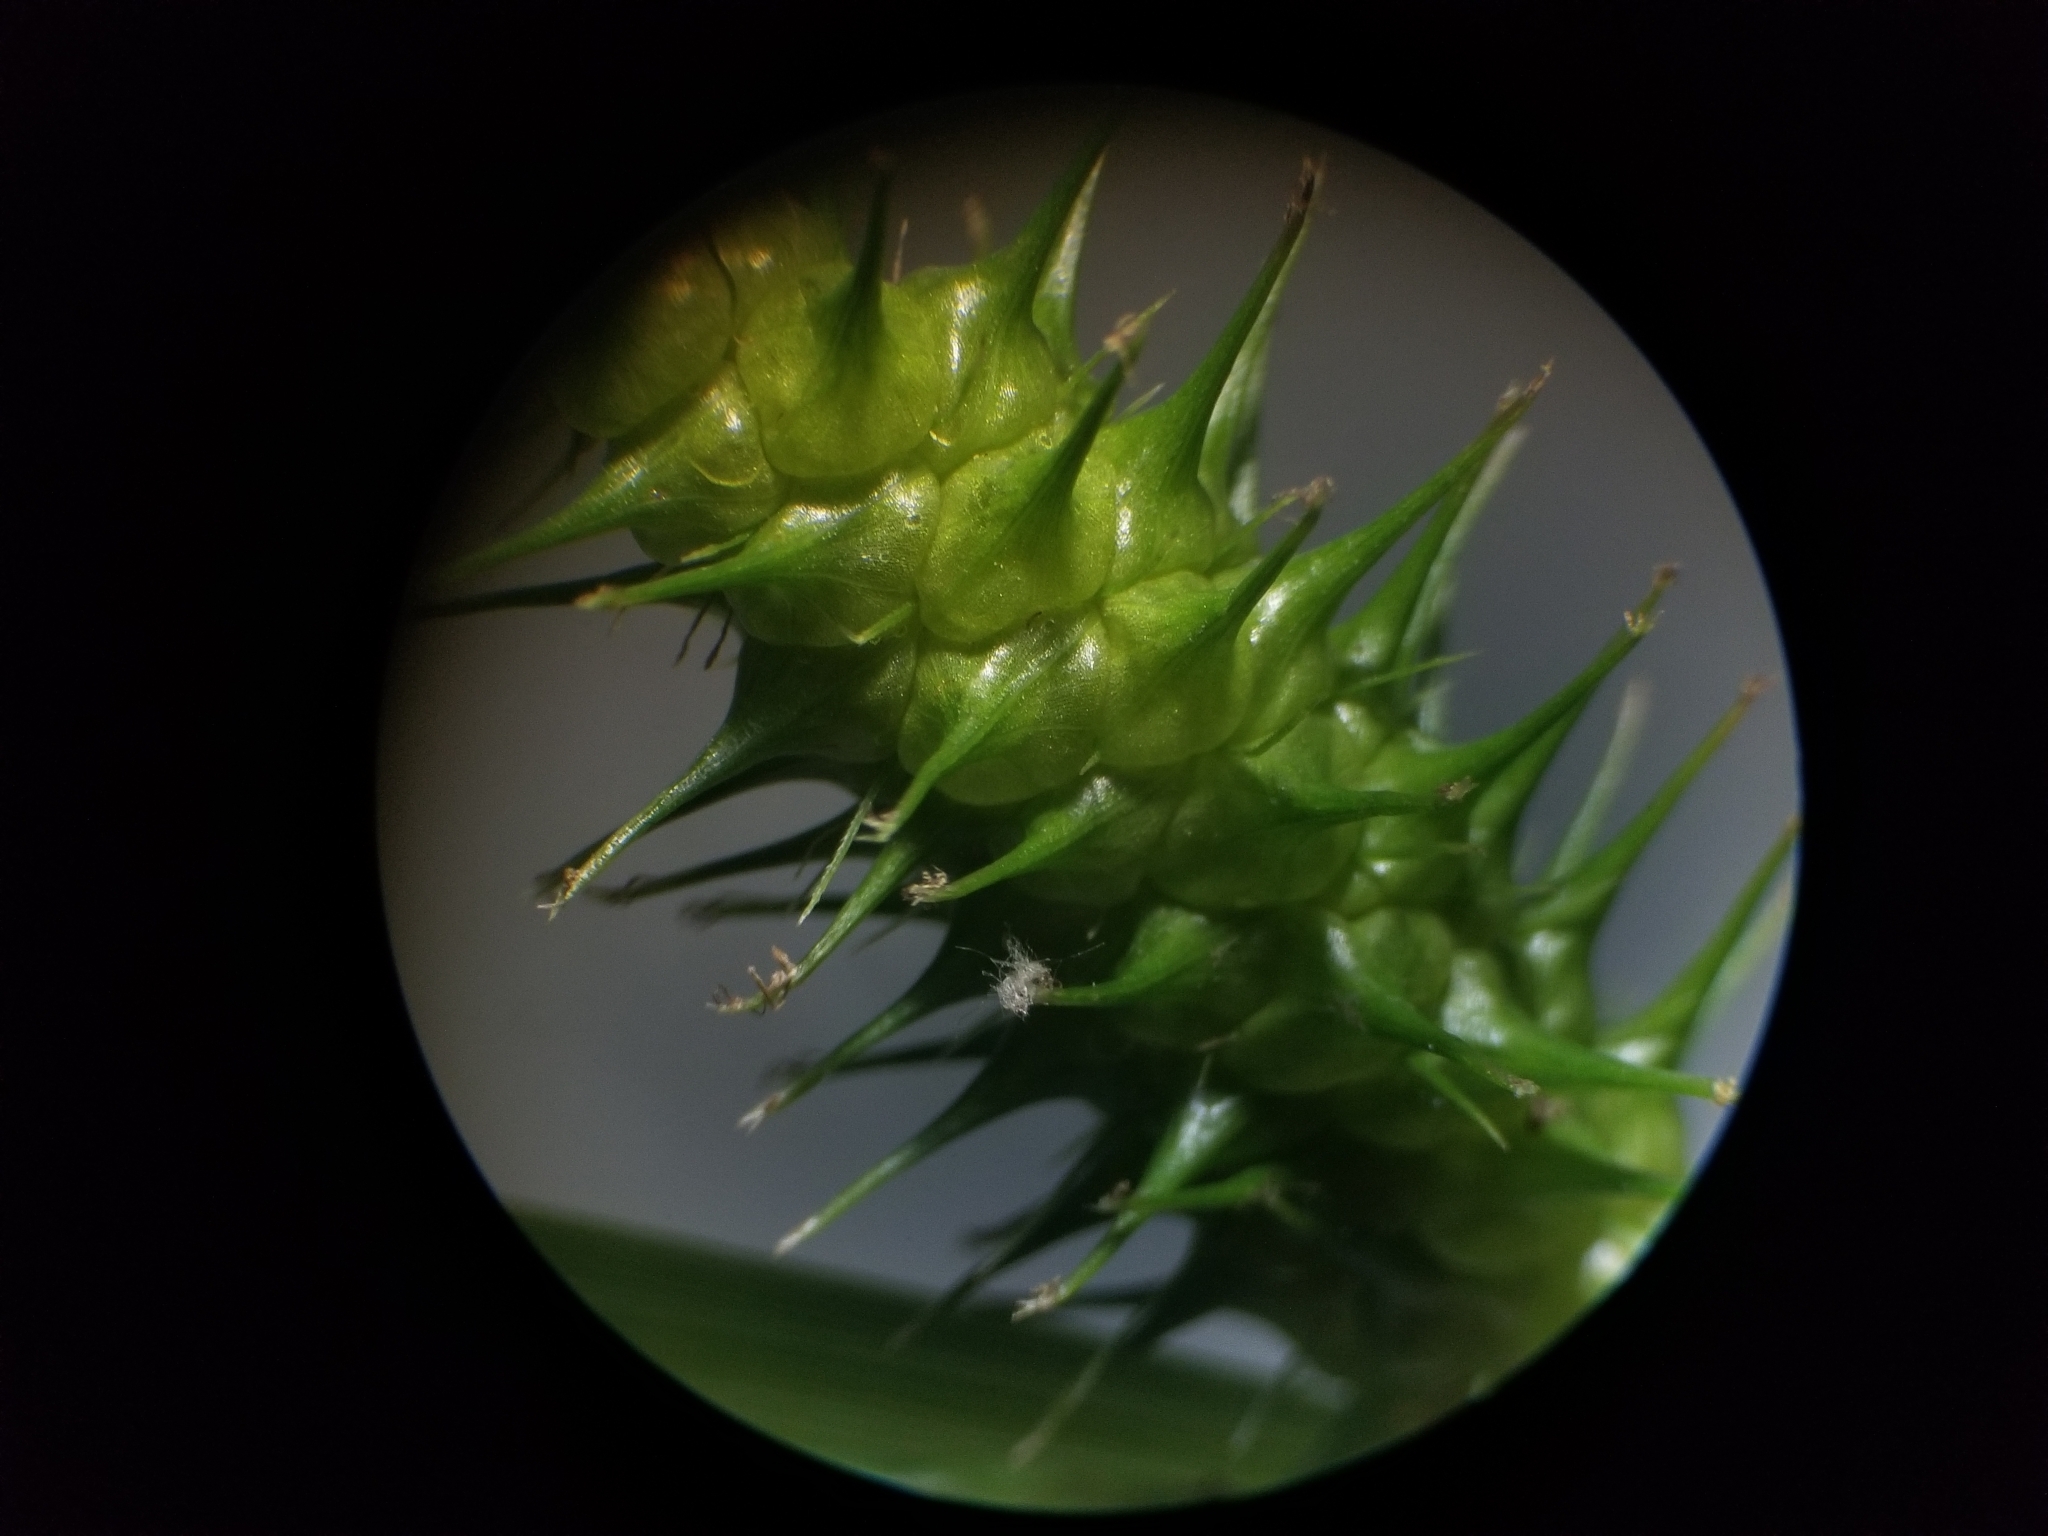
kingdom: Plantae
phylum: Tracheophyta
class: Liliopsida
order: Poales
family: Cyperaceae
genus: Carex
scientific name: Carex lurida
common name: Sallow sedge
